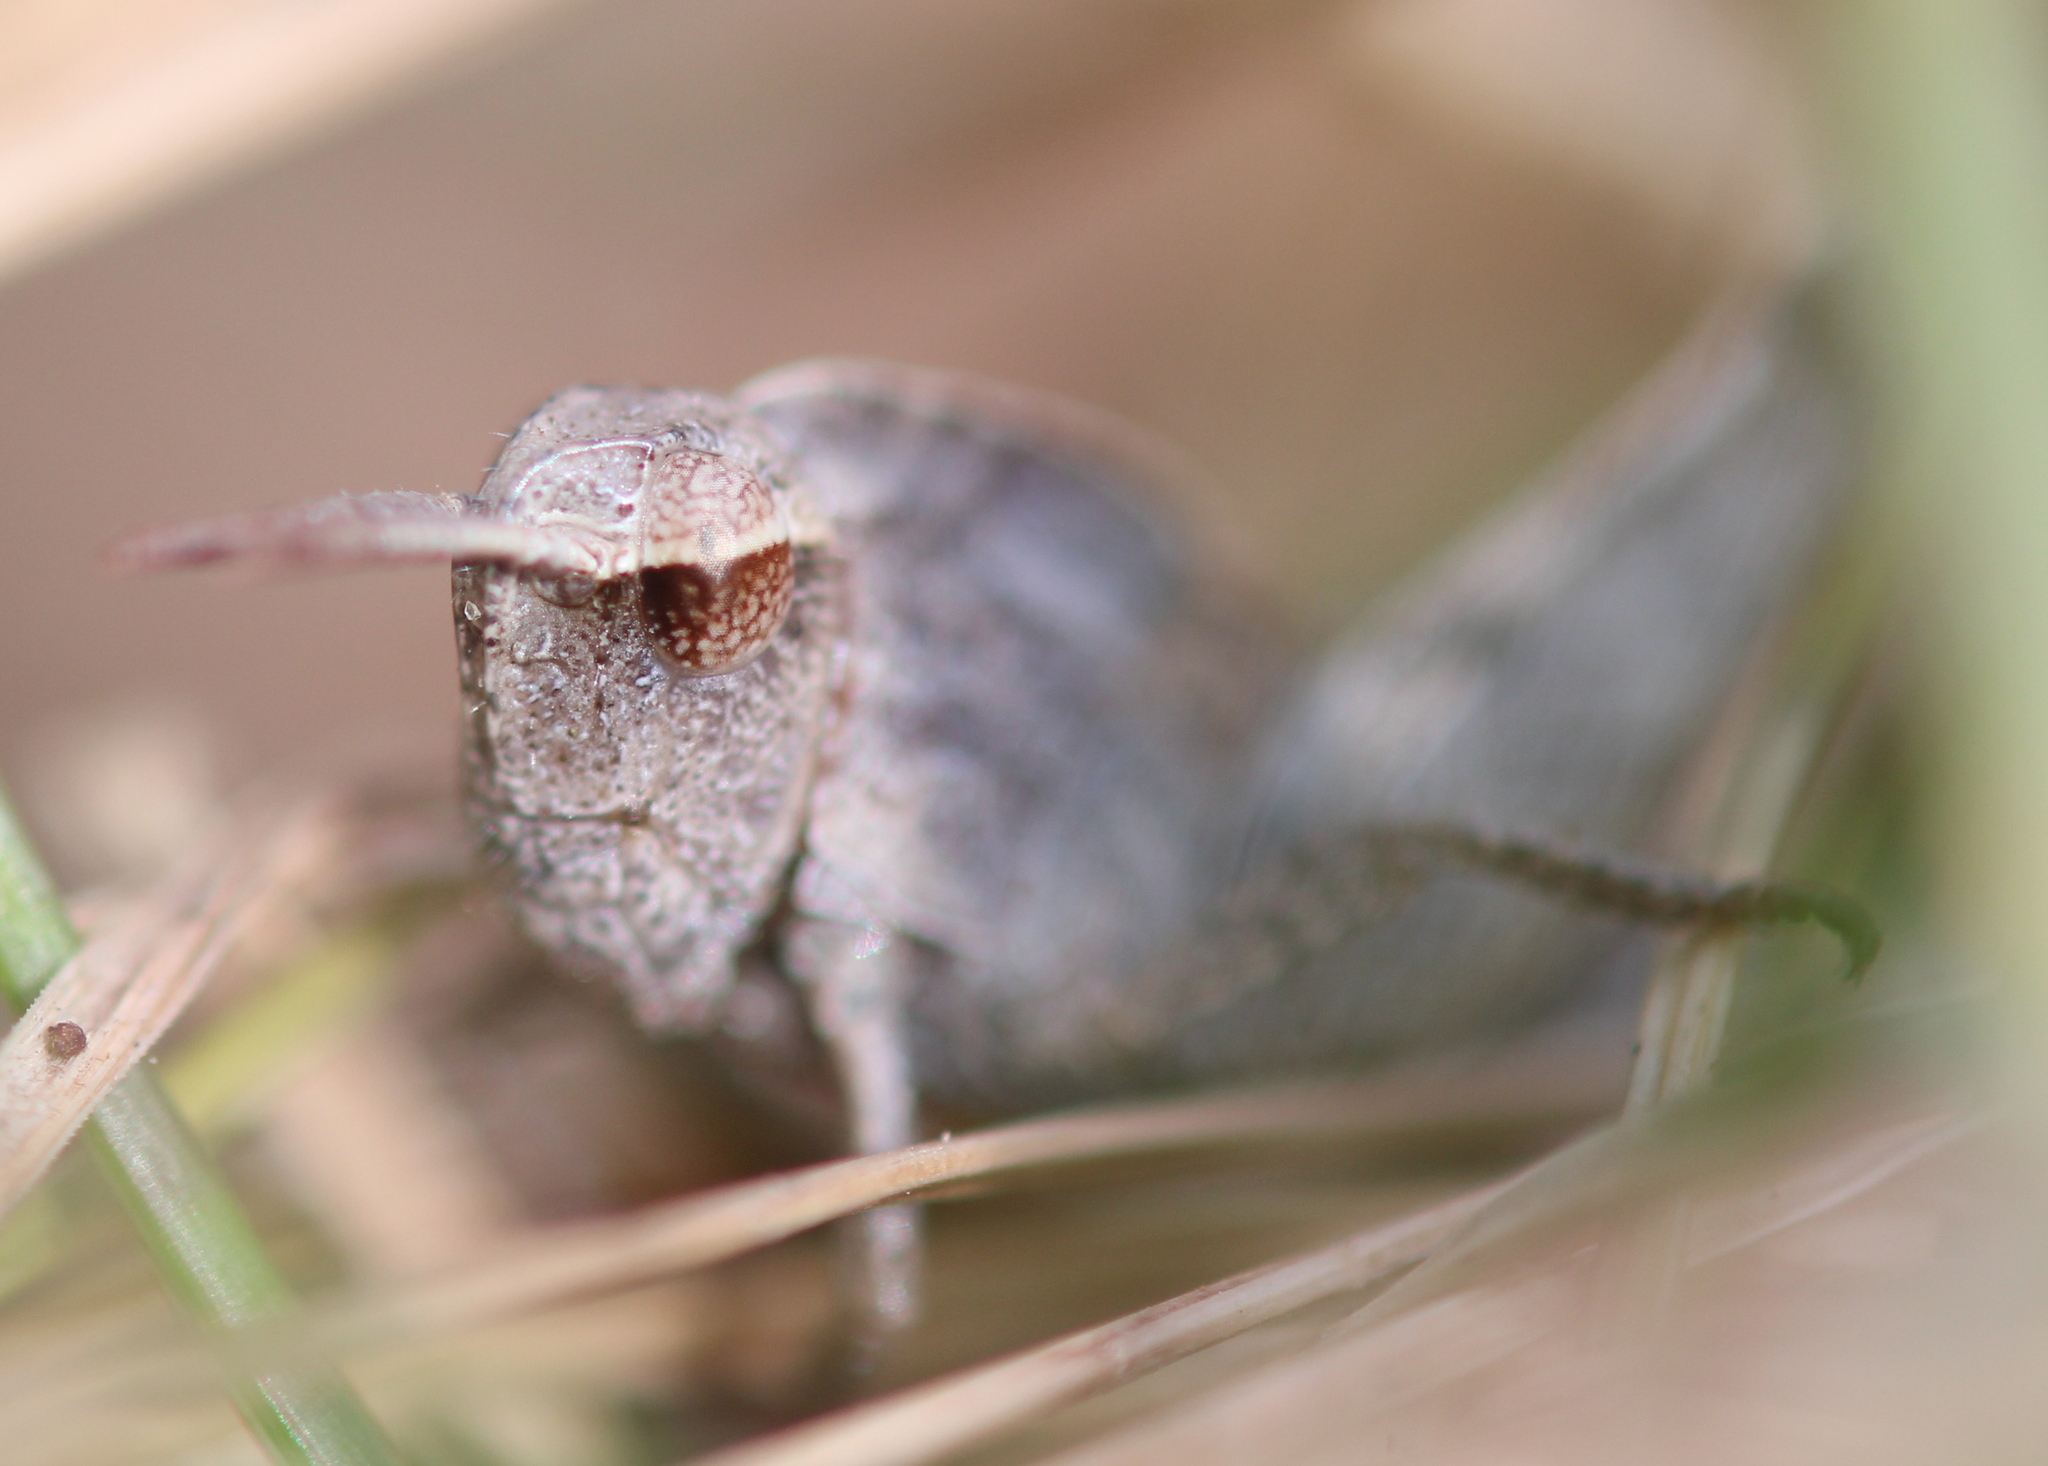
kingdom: Animalia
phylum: Arthropoda
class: Insecta
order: Orthoptera
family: Acrididae
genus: Chortophaga
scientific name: Chortophaga viridifasciata
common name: Green-striped grasshopper
